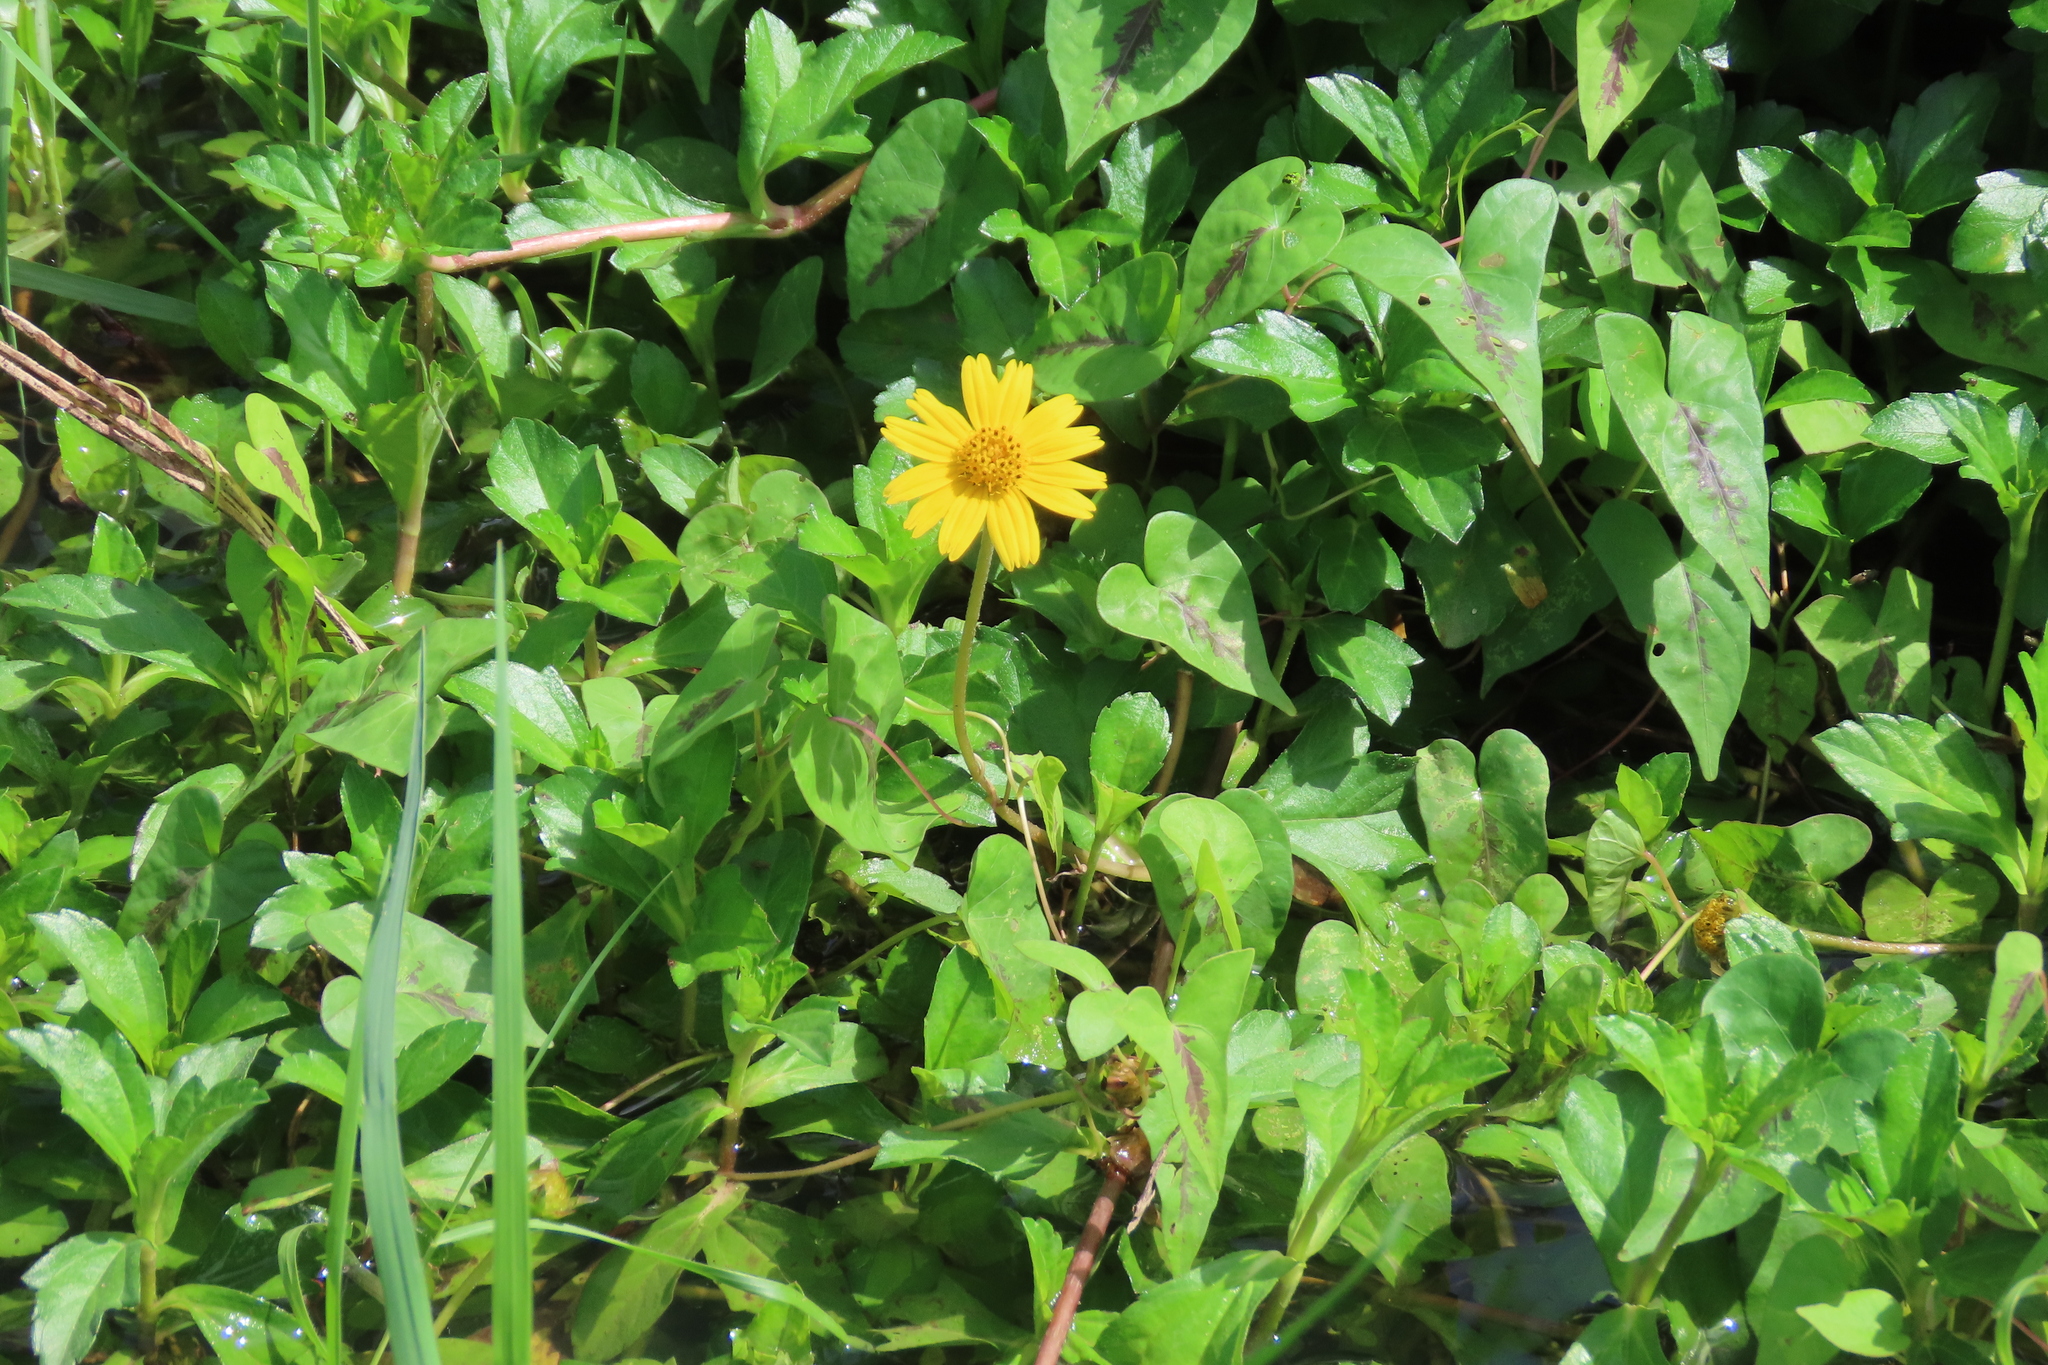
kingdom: Plantae
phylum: Tracheophyta
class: Magnoliopsida
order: Asterales
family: Asteraceae
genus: Sphagneticola
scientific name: Sphagneticola trilobata
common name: Bay biscayne creeping-oxeye
